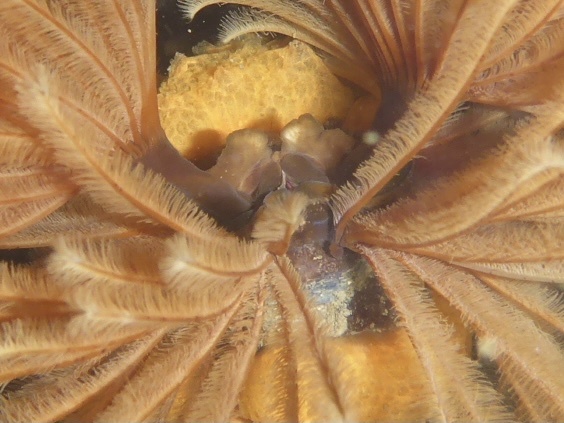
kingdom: Animalia
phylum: Annelida
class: Polychaeta
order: Sabellida
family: Sabellidae
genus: Eudistylia
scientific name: Eudistylia polymorpha
